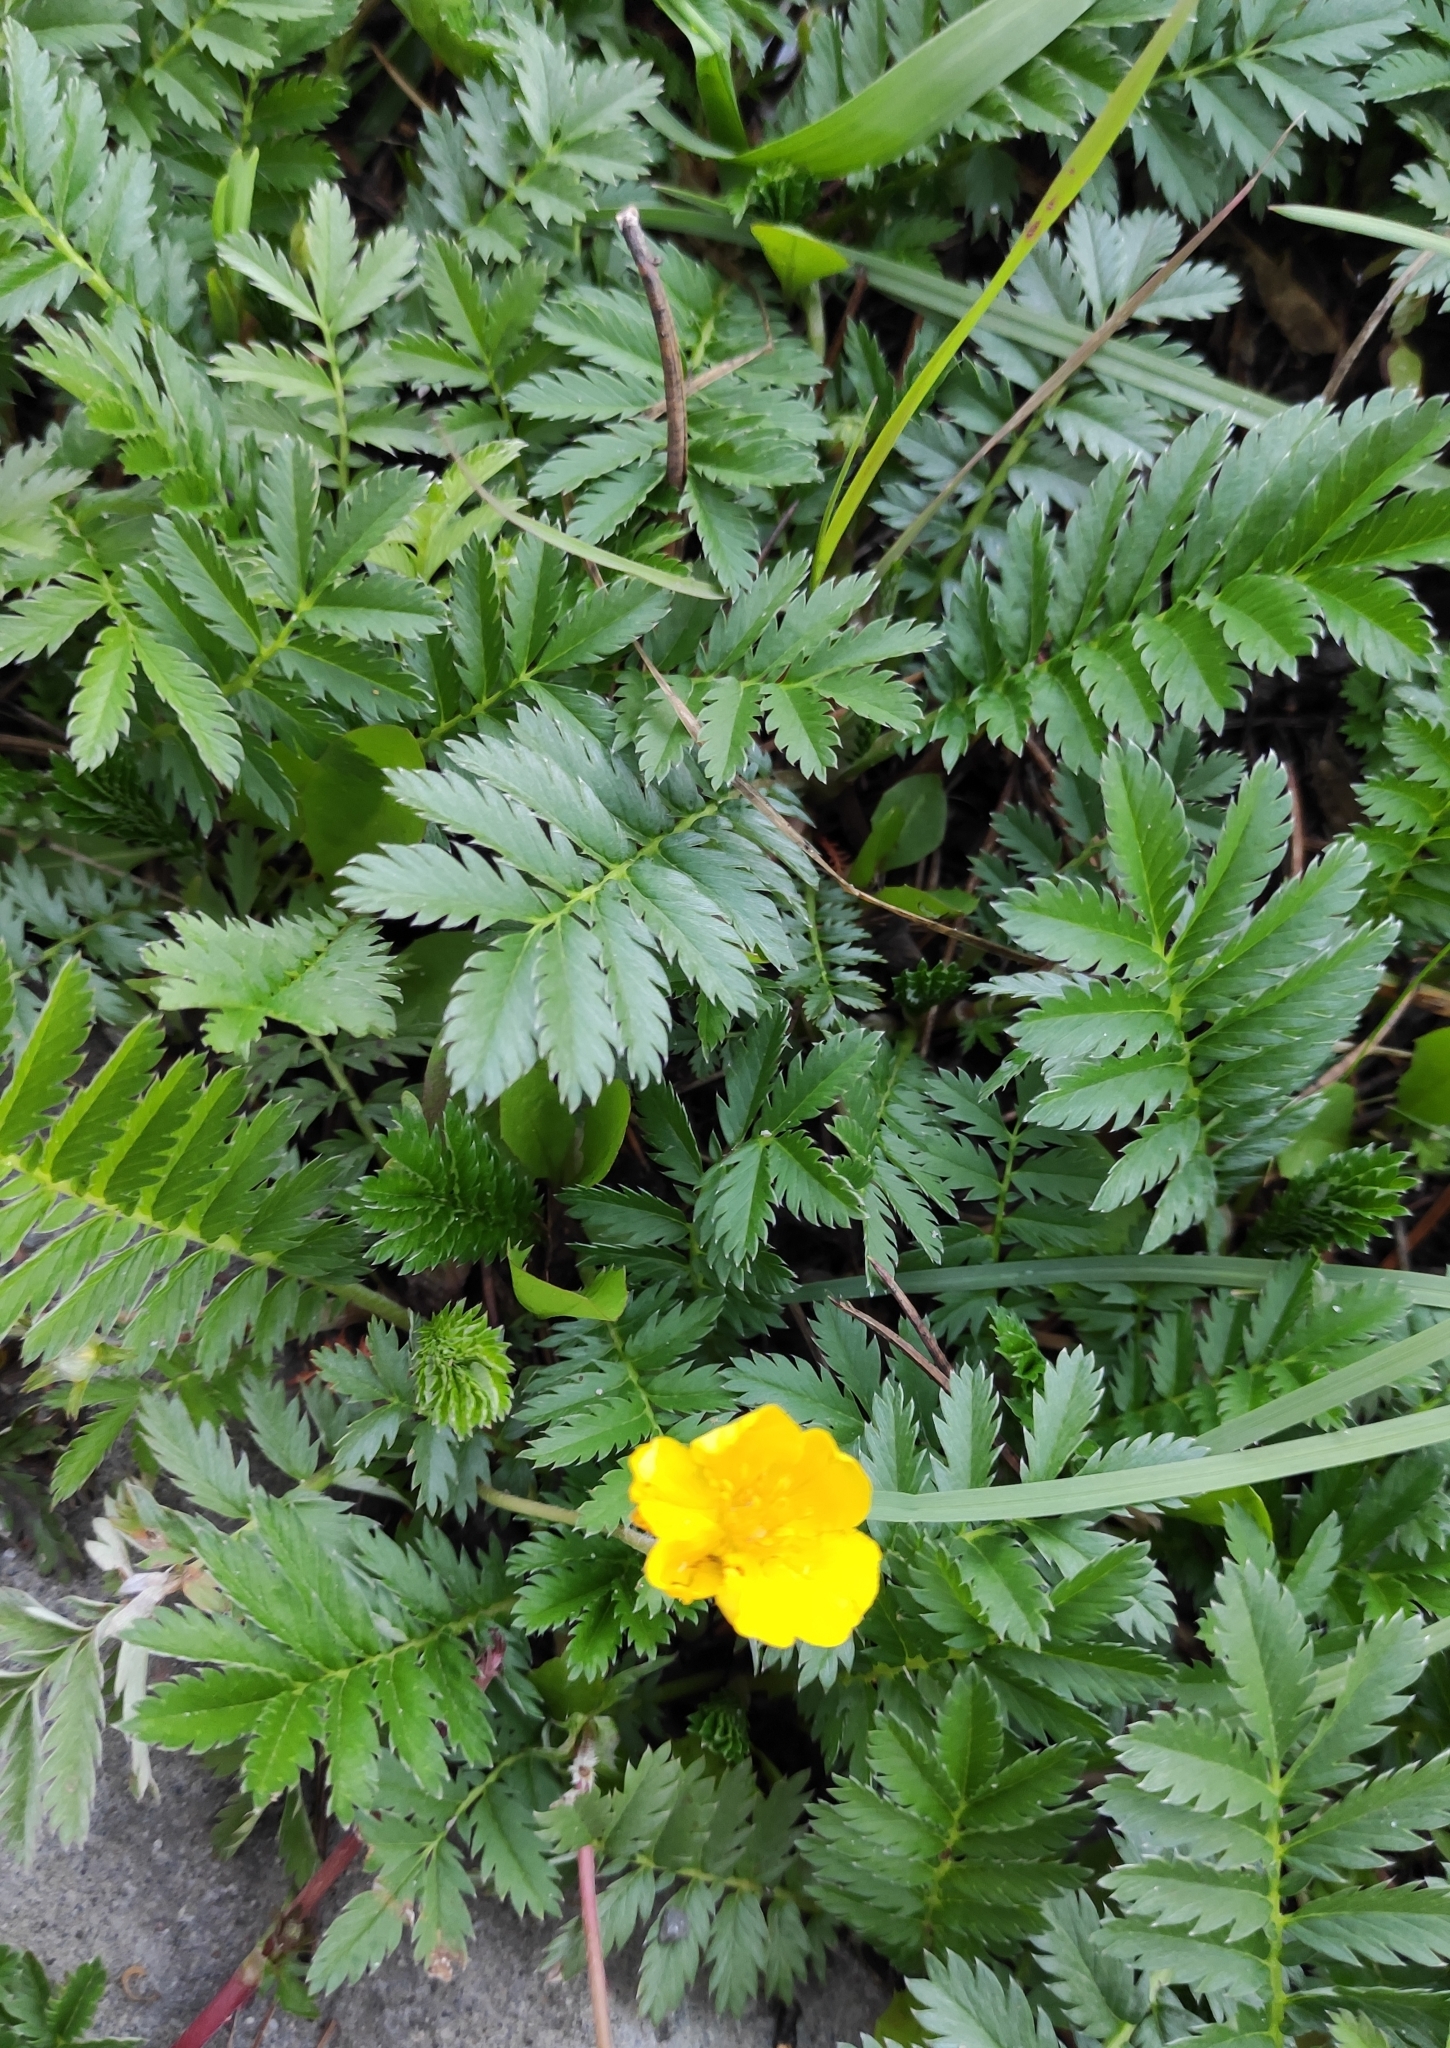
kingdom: Plantae
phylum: Tracheophyta
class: Magnoliopsida
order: Rosales
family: Rosaceae
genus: Argentina
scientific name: Argentina anserina
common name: Common silverweed
